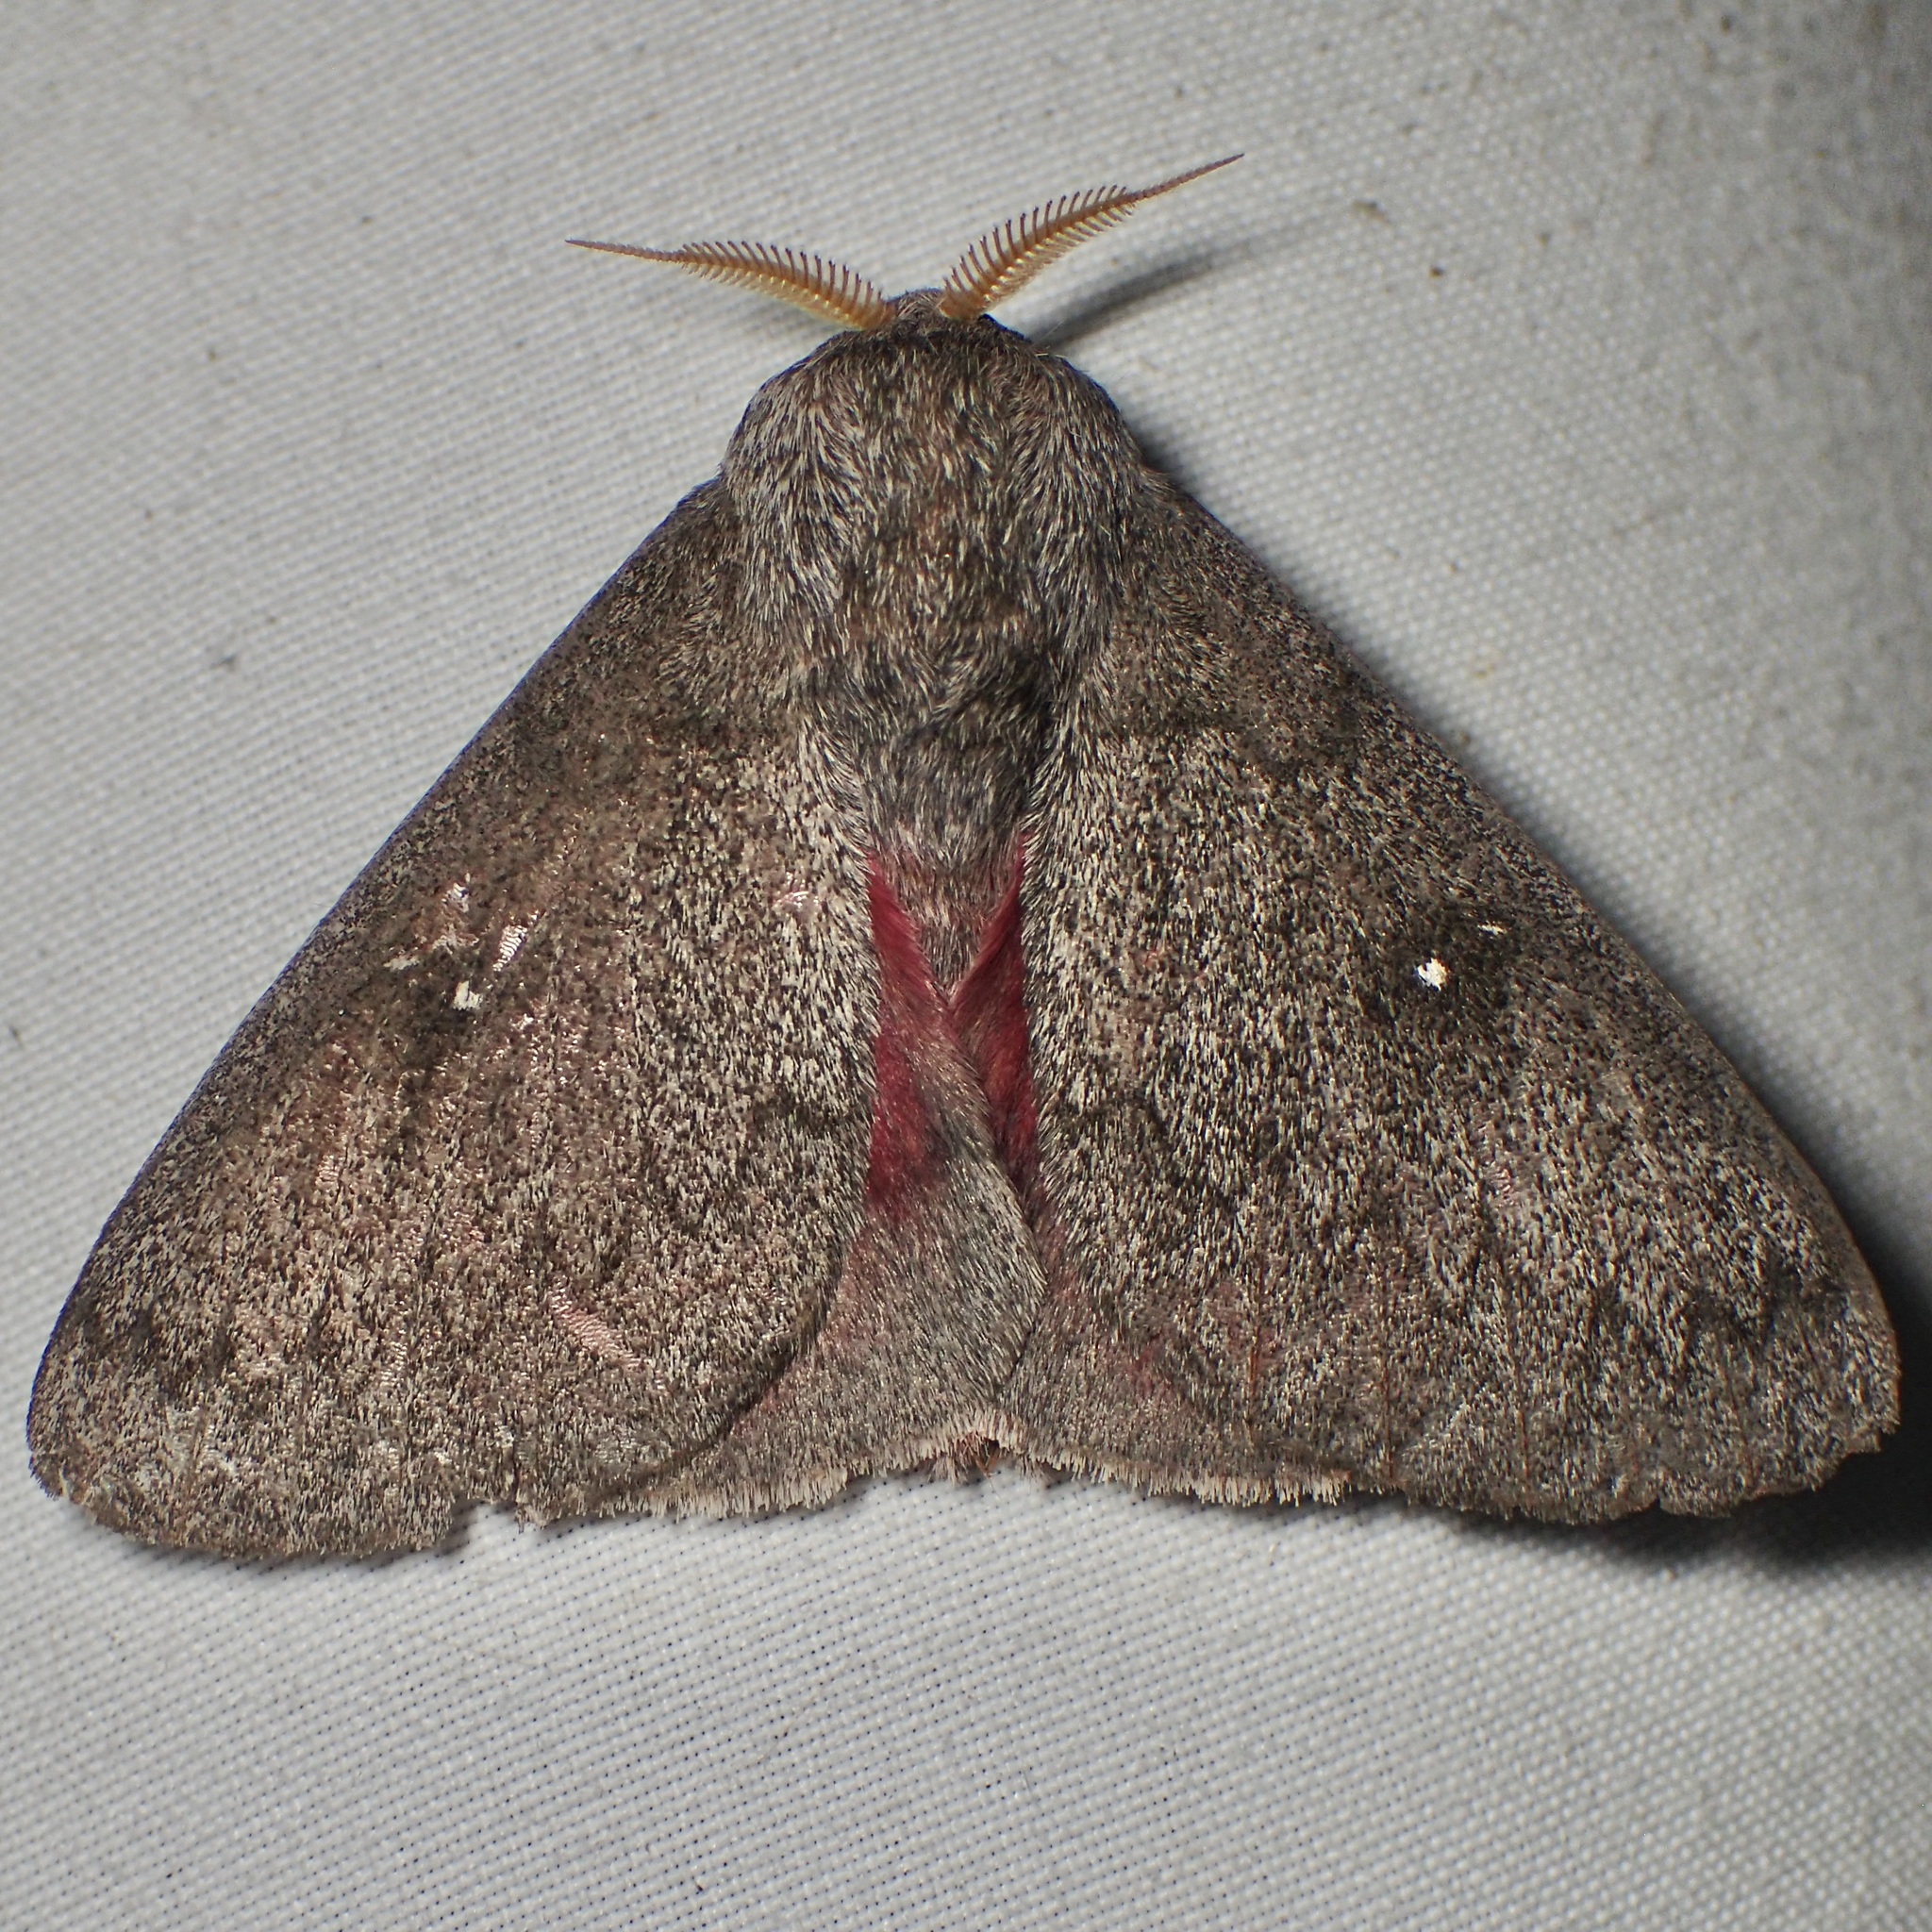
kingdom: Animalia
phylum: Arthropoda
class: Insecta
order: Lepidoptera
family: Saturniidae
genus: Syssphinx
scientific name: Syssphinx hubbardi
